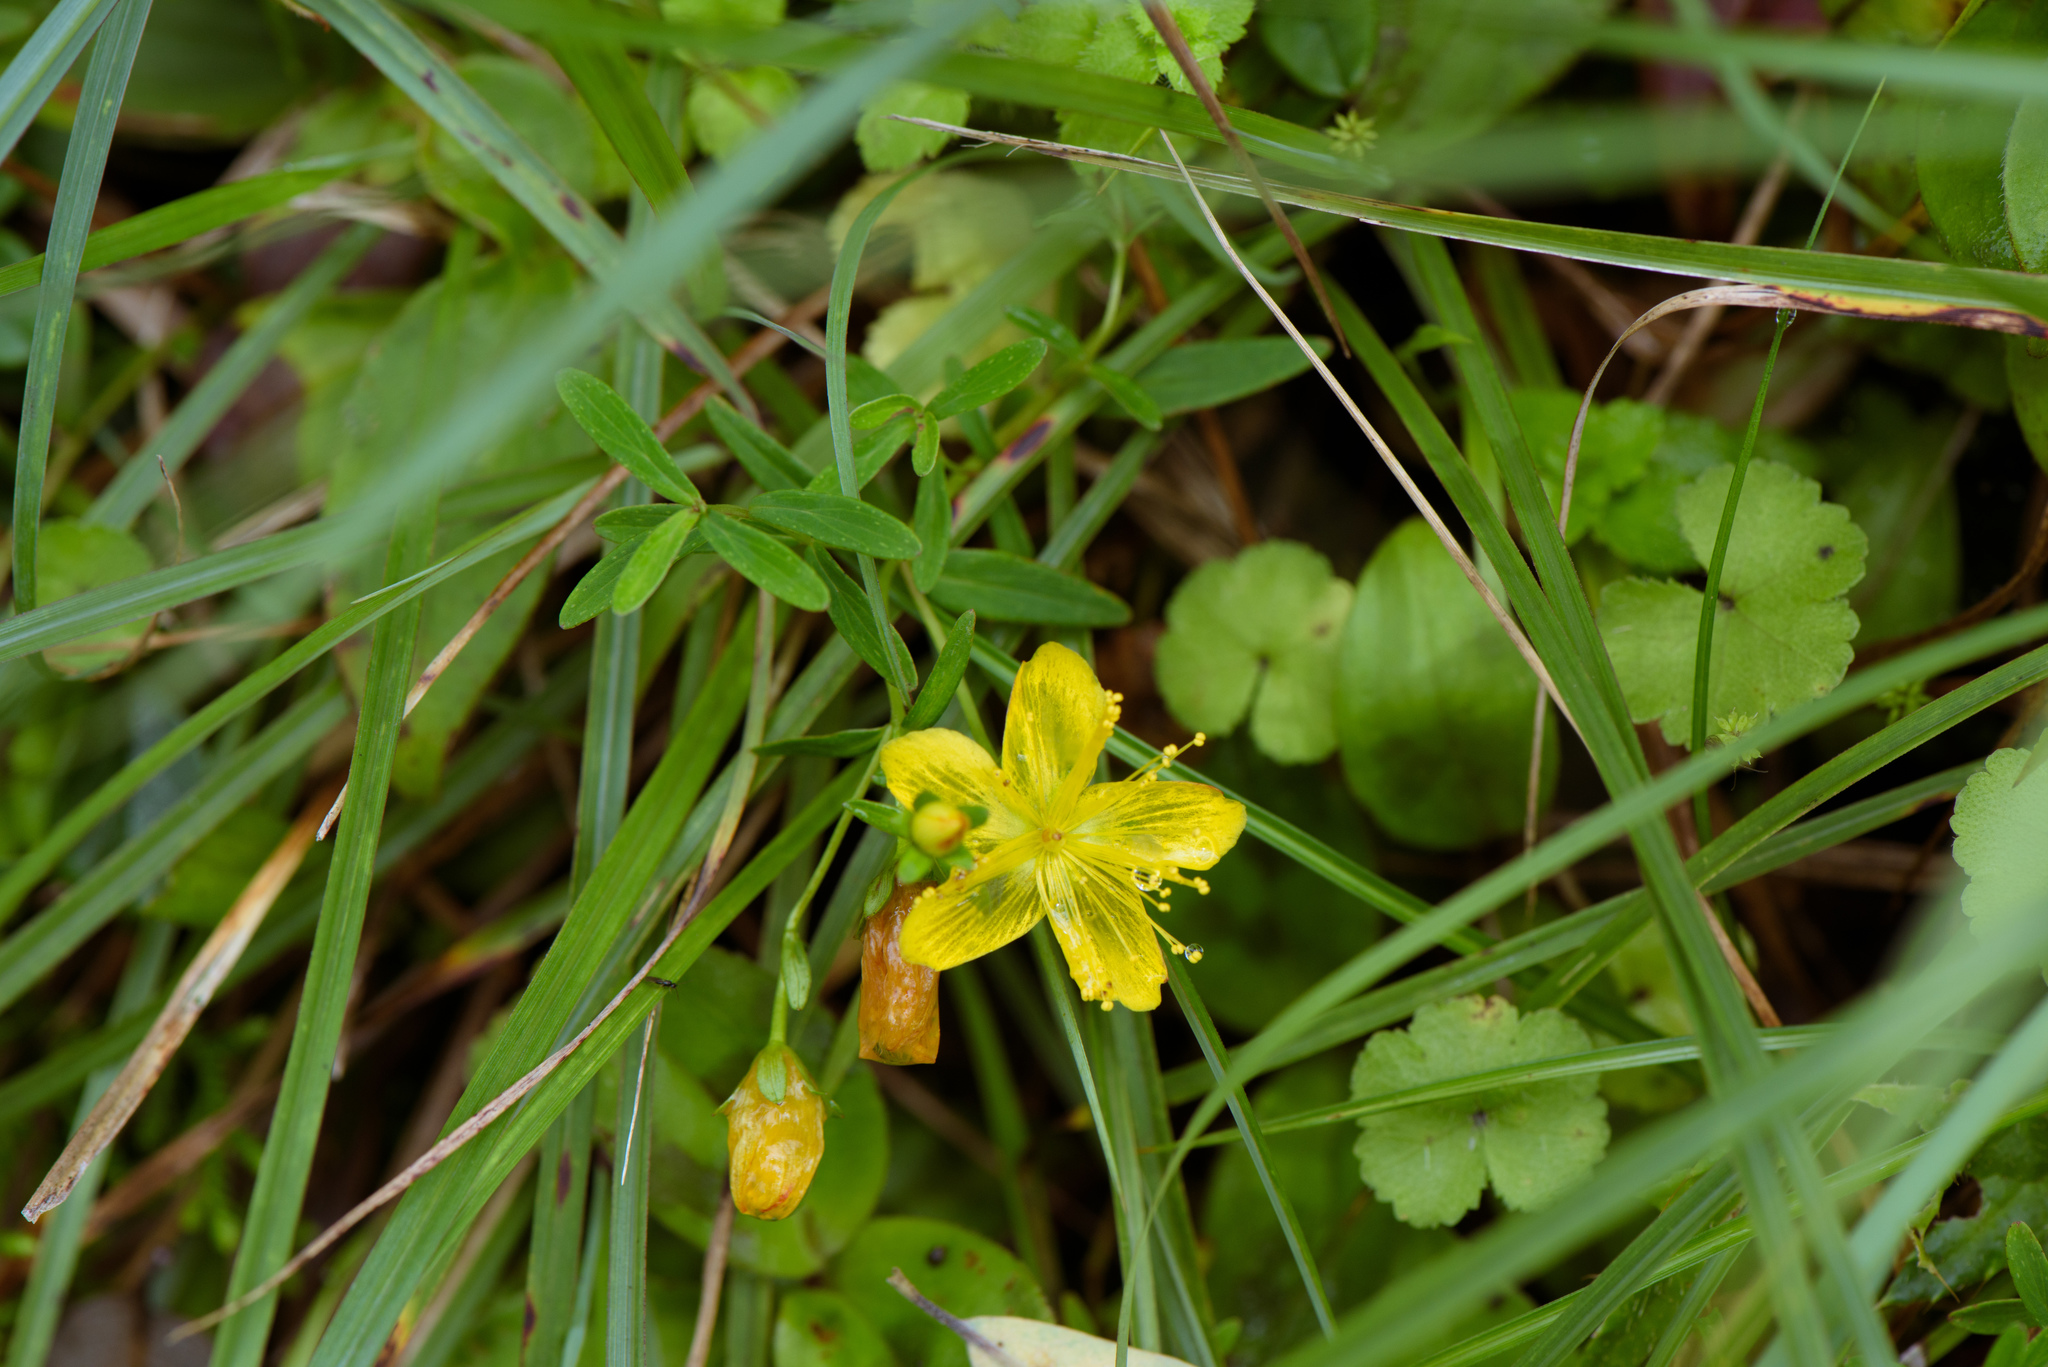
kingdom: Plantae
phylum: Tracheophyta
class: Magnoliopsida
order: Malpighiales
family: Hypericaceae
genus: Hypericum
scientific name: Hypericum nagasawae
